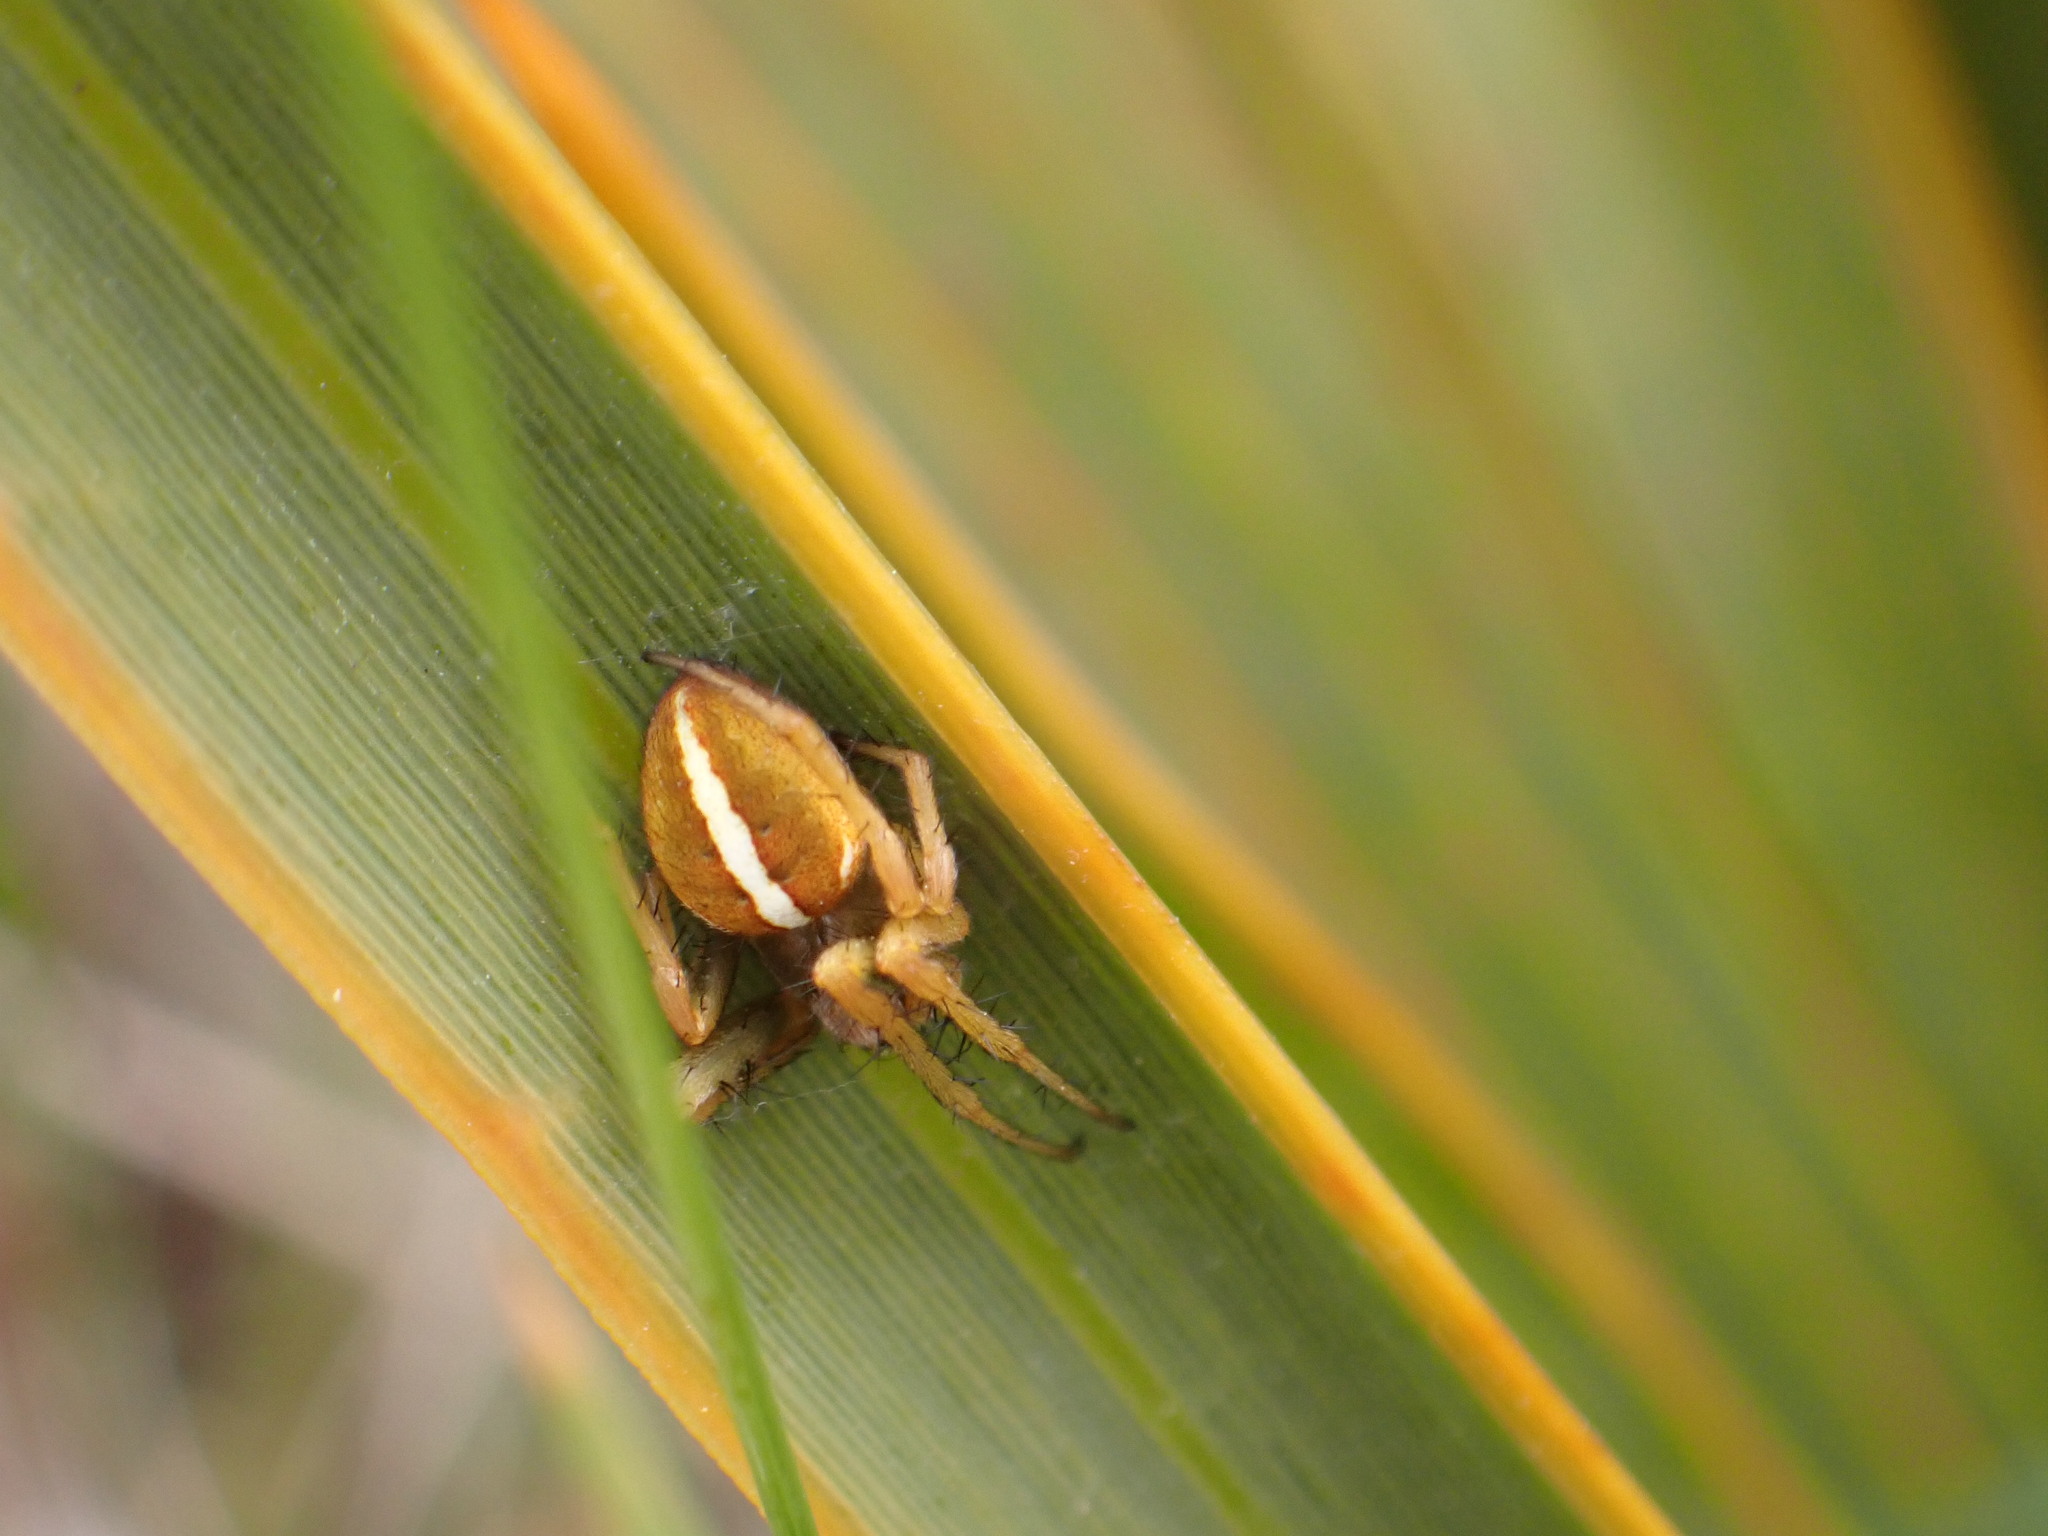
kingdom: Animalia
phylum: Arthropoda
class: Arachnida
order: Araneae
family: Araneidae
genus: Colaranea
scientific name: Colaranea brunnea
